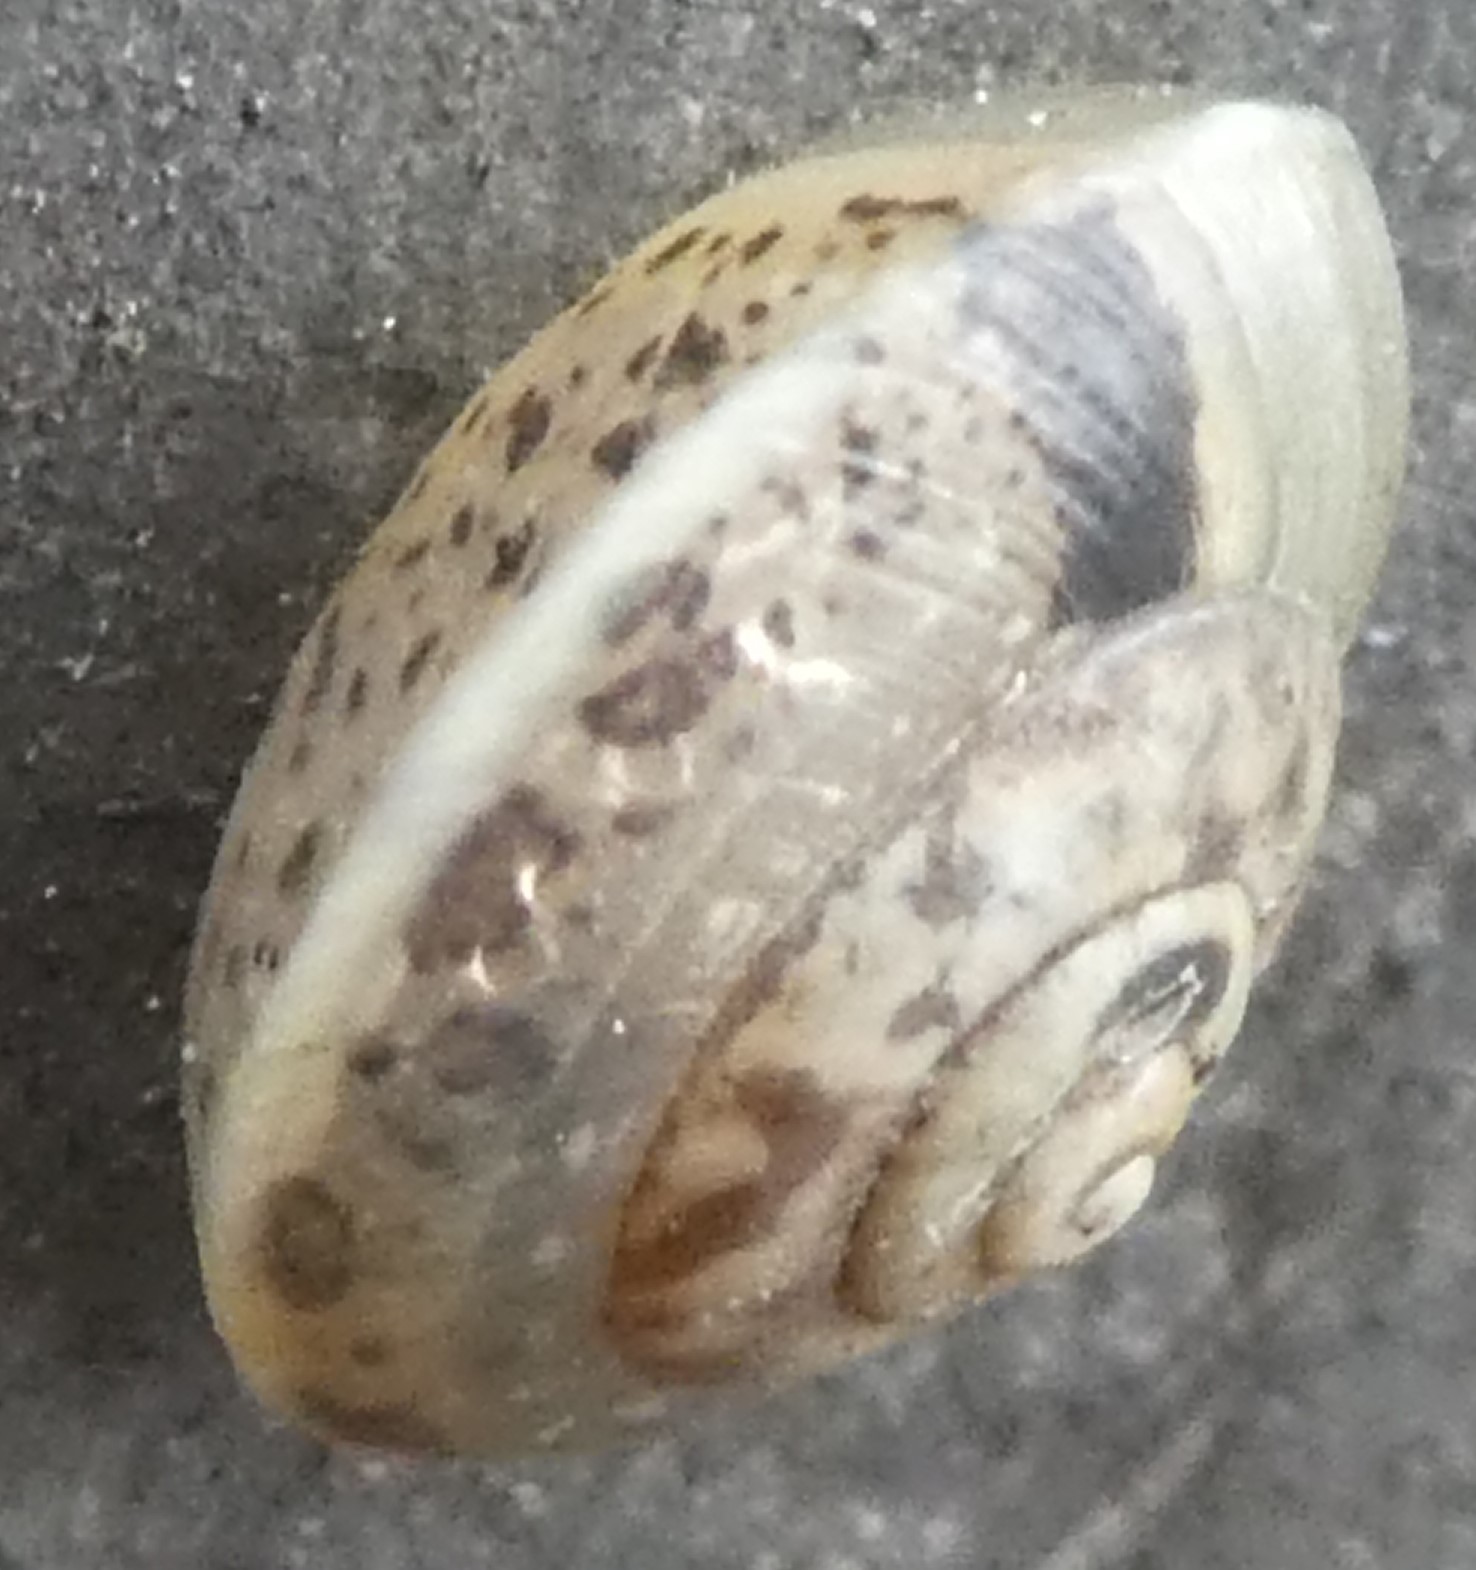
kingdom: Animalia
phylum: Mollusca
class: Gastropoda
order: Stylommatophora
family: Hygromiidae
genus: Hygromia
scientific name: Hygromia cinctella
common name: Girdled snail
